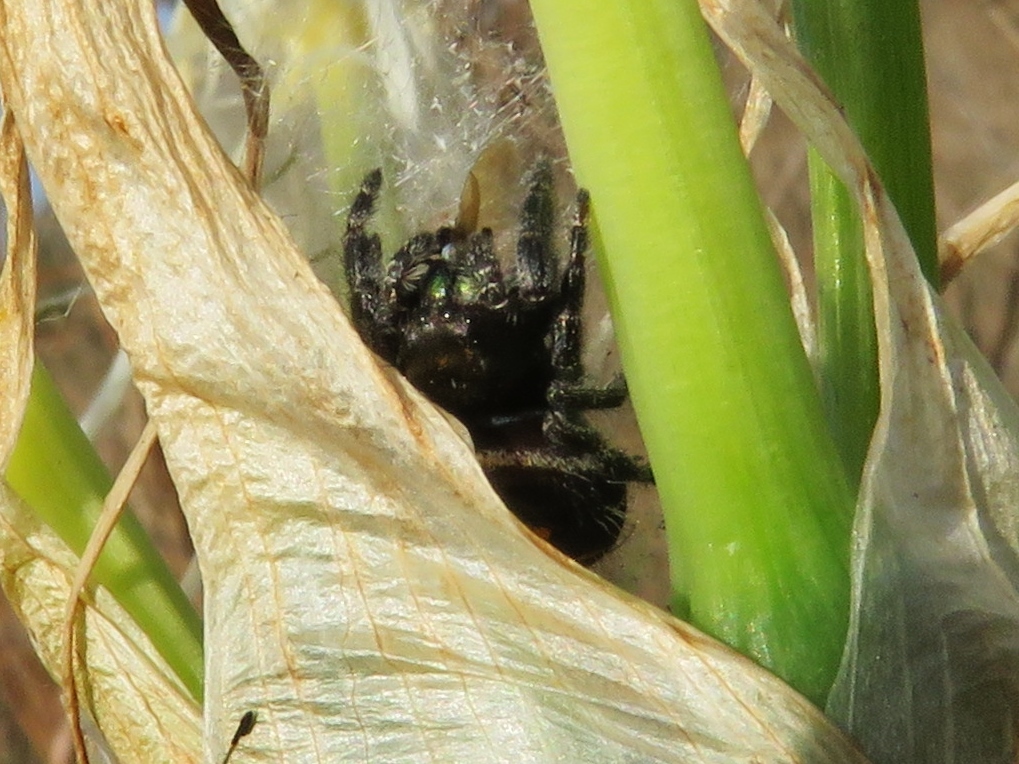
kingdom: Animalia
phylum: Arthropoda
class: Arachnida
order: Araneae
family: Salticidae
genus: Phidippus
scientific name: Phidippus audax
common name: Bold jumper
